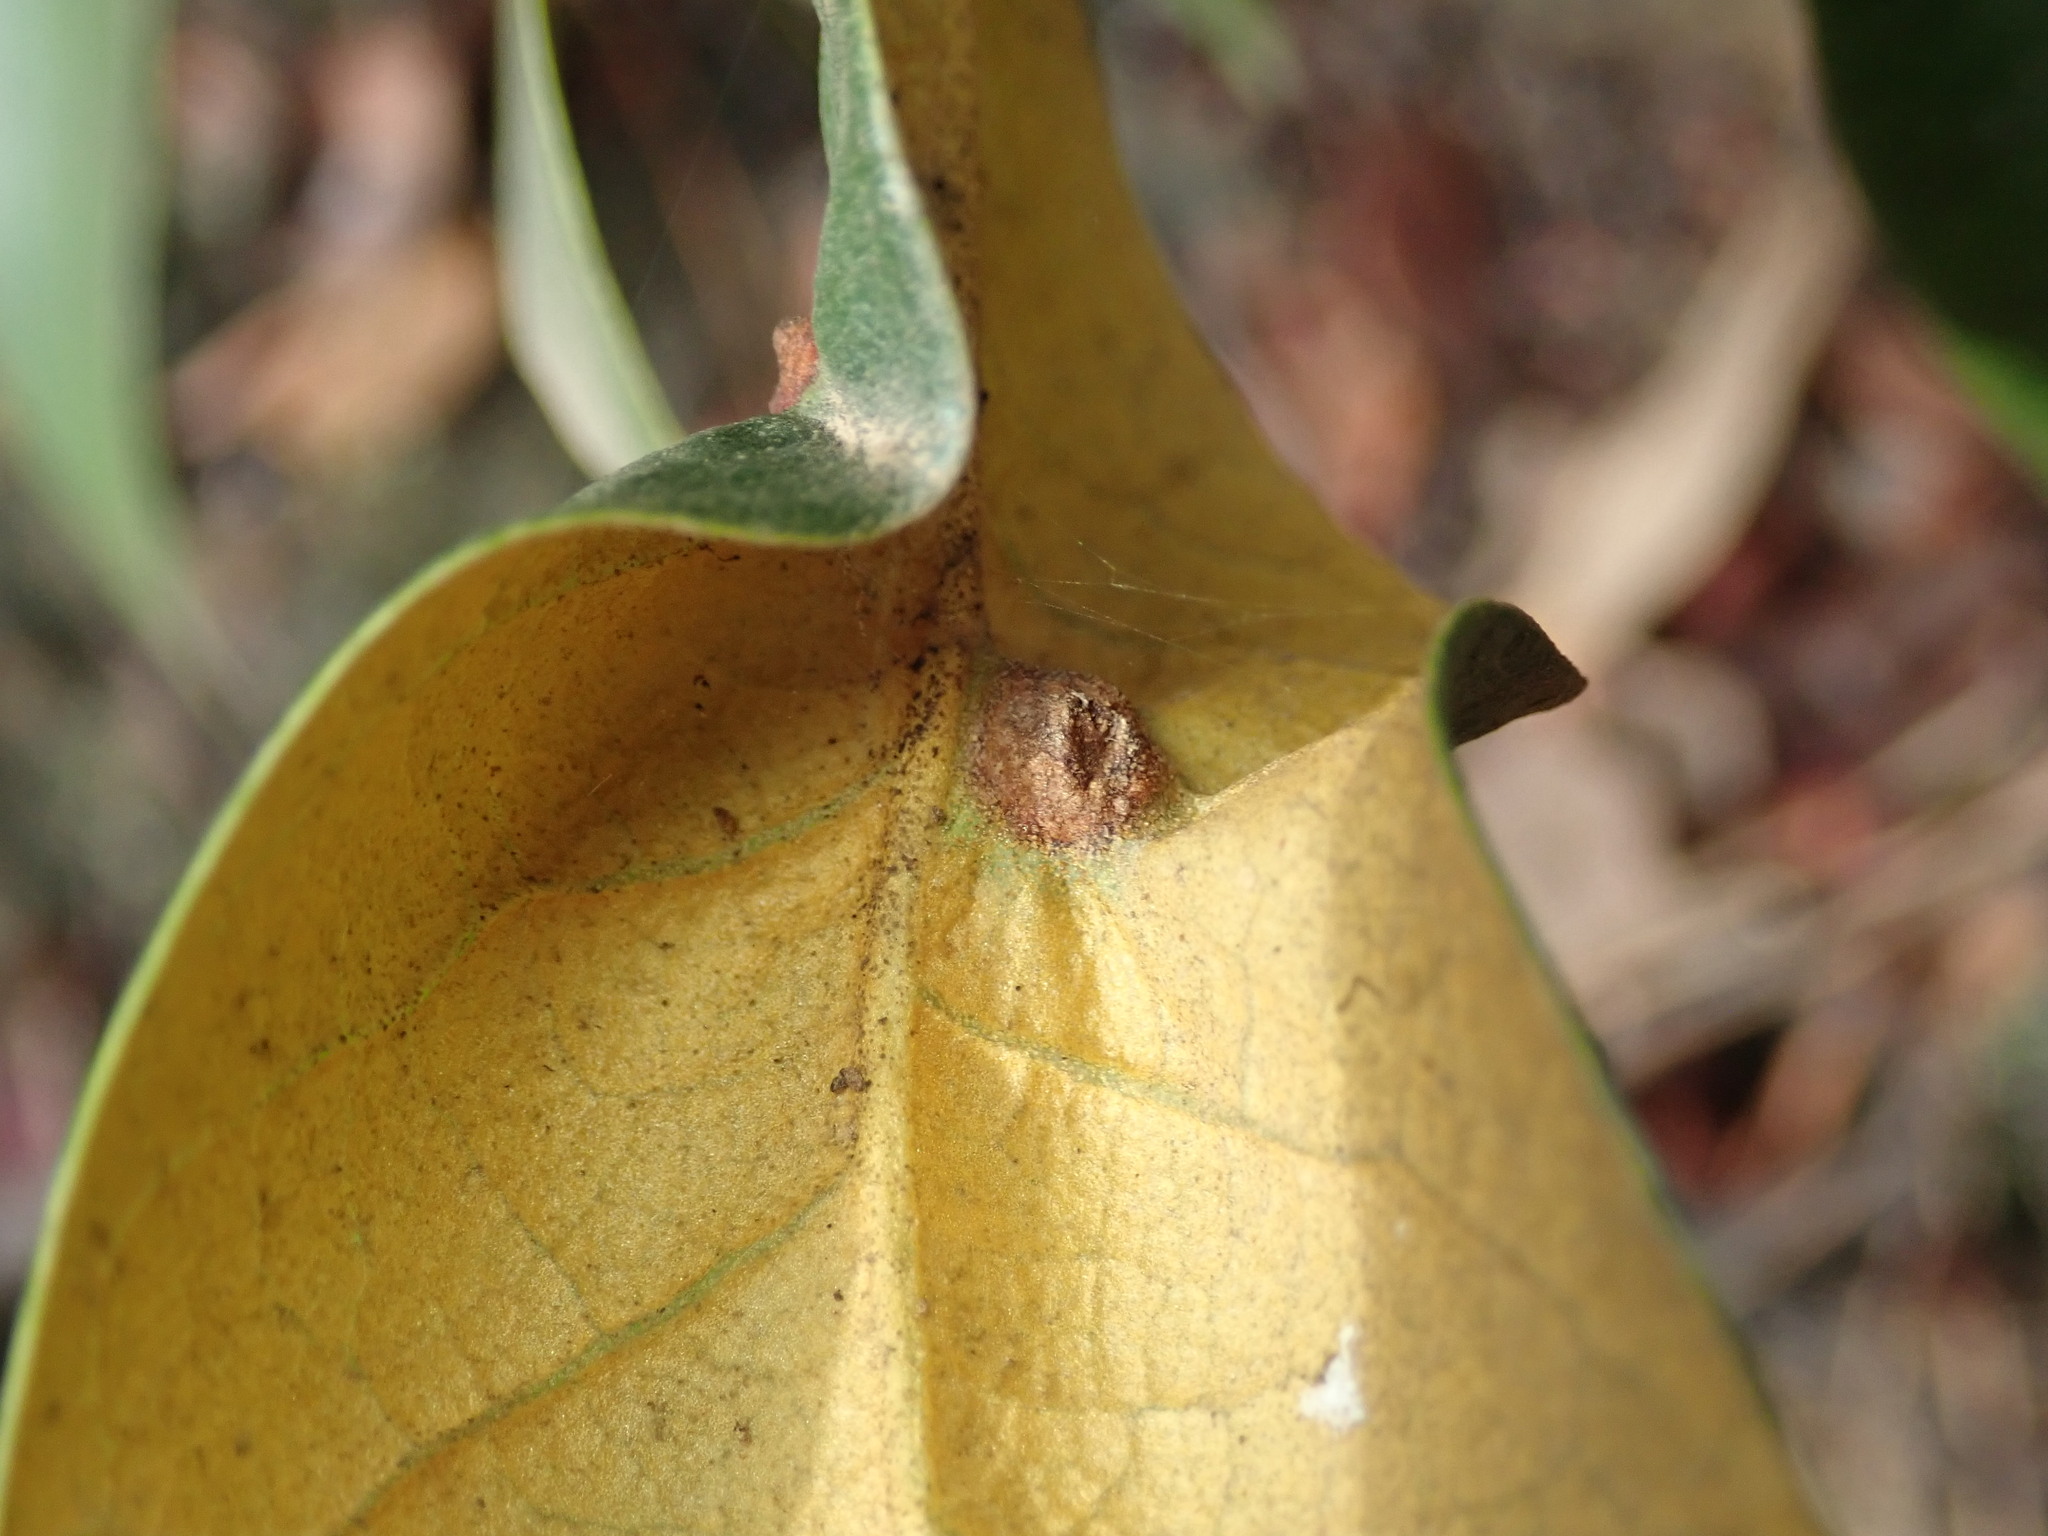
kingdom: Animalia
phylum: Arthropoda
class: Insecta
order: Hymenoptera
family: Cynipidae
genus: Dryocosmus
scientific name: Dryocosmus juliae
